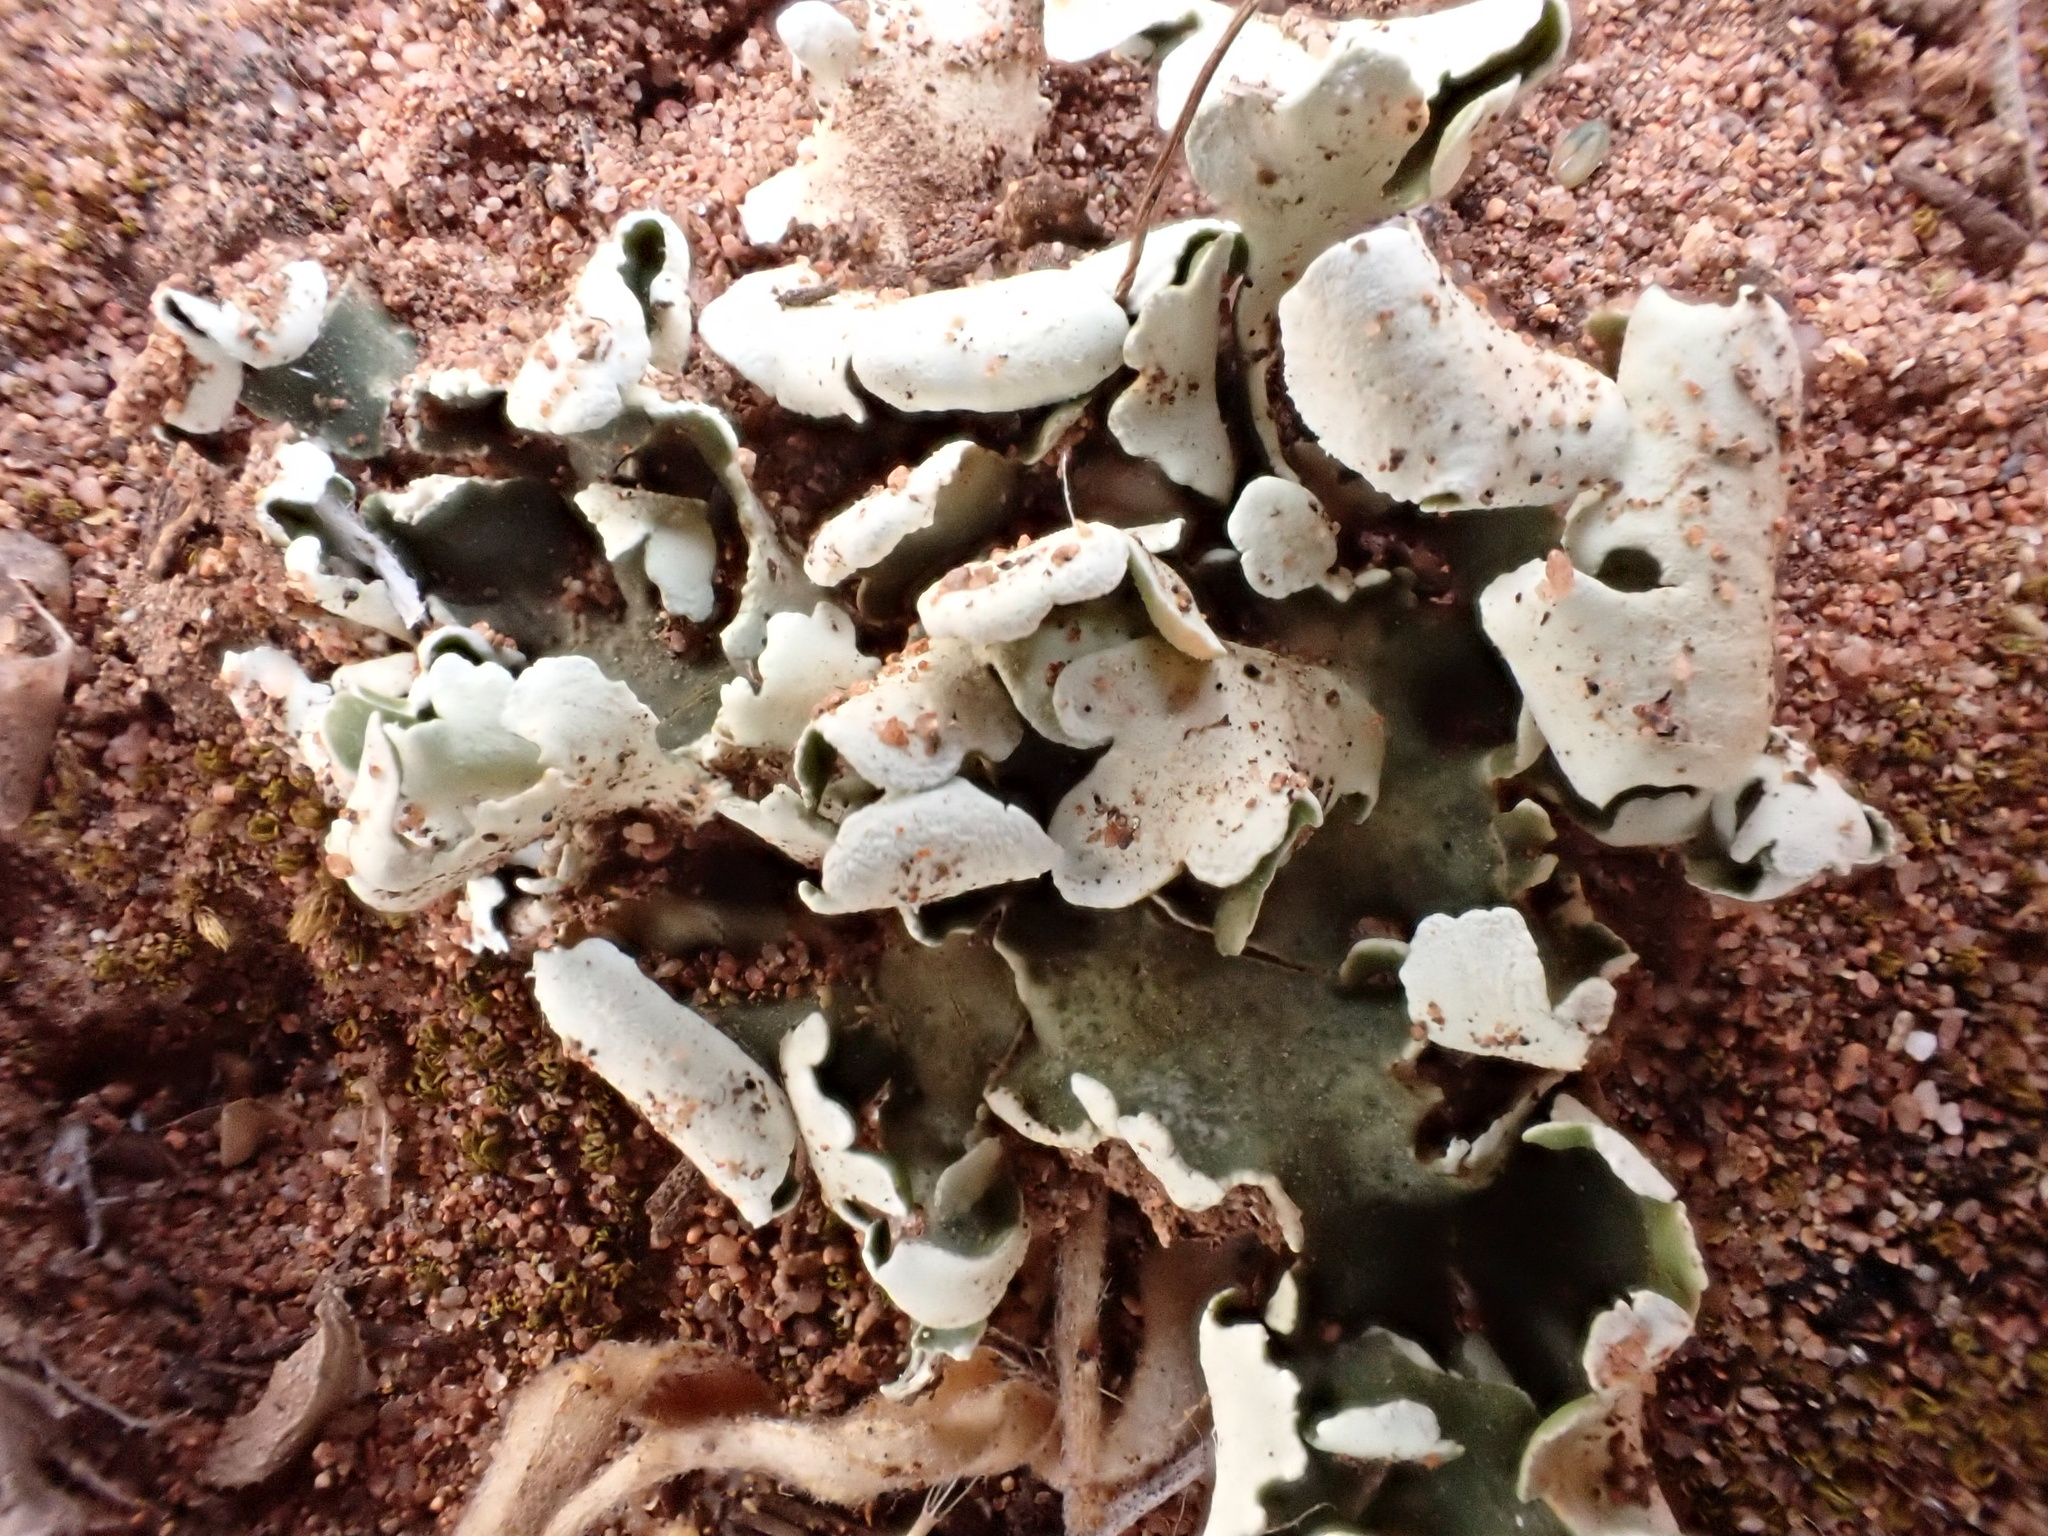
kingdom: Fungi
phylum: Ascomycota
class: Lecanoromycetes
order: Lecanorales
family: Cladoniaceae
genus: Cladonia
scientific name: Cladonia foliacea
